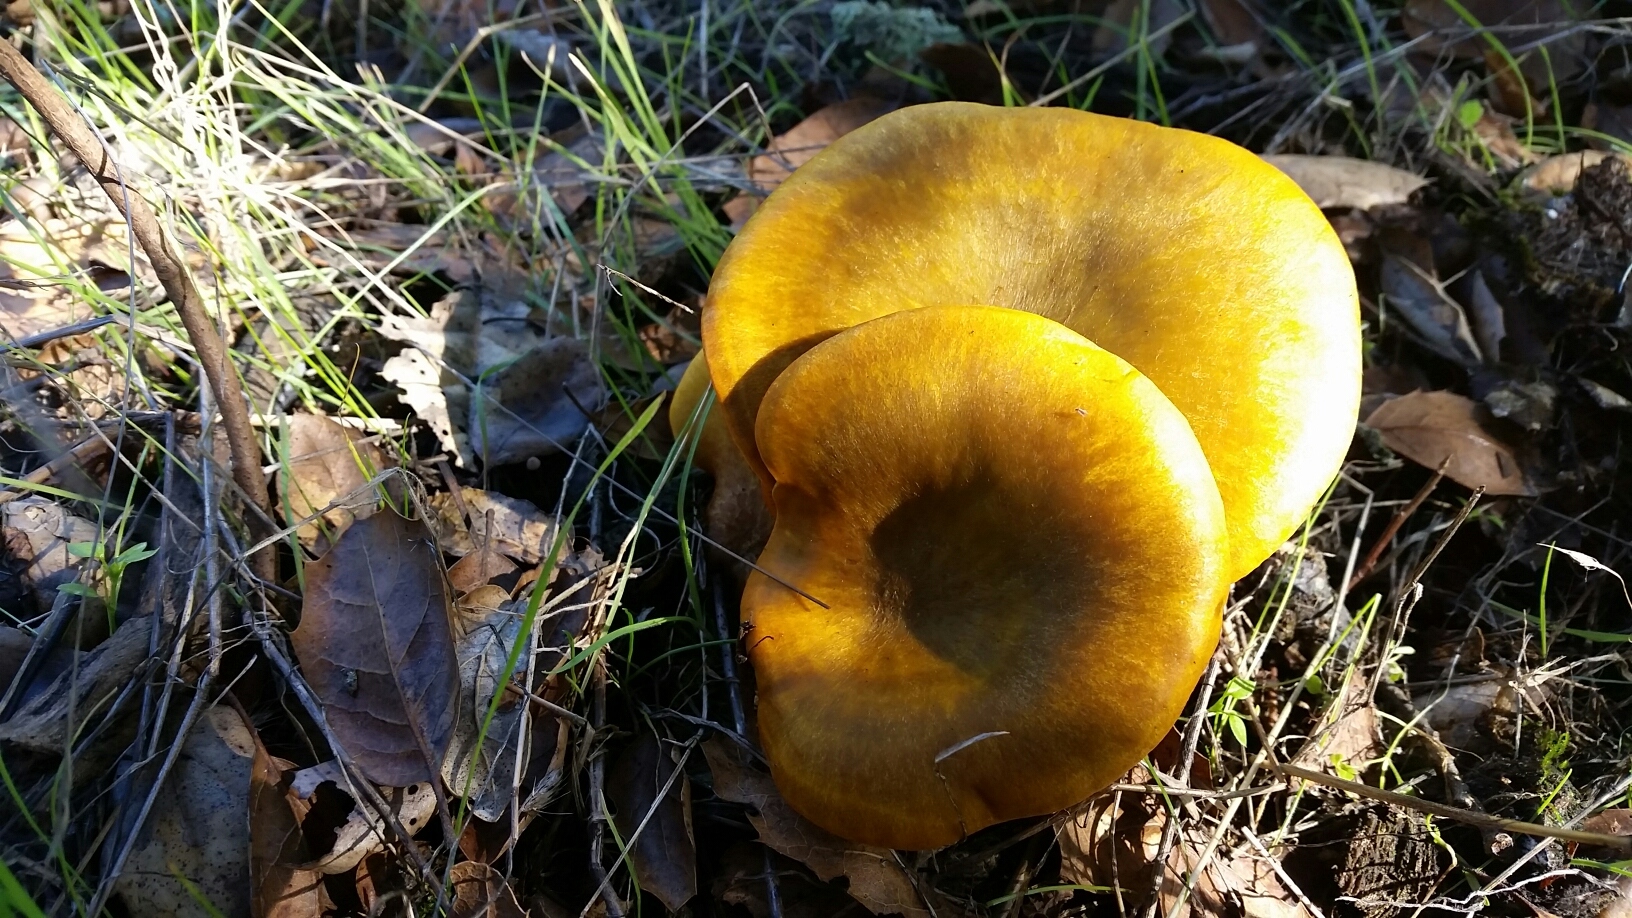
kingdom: Fungi
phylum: Basidiomycota
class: Agaricomycetes
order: Agaricales
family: Omphalotaceae
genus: Omphalotus
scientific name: Omphalotus olivascens
